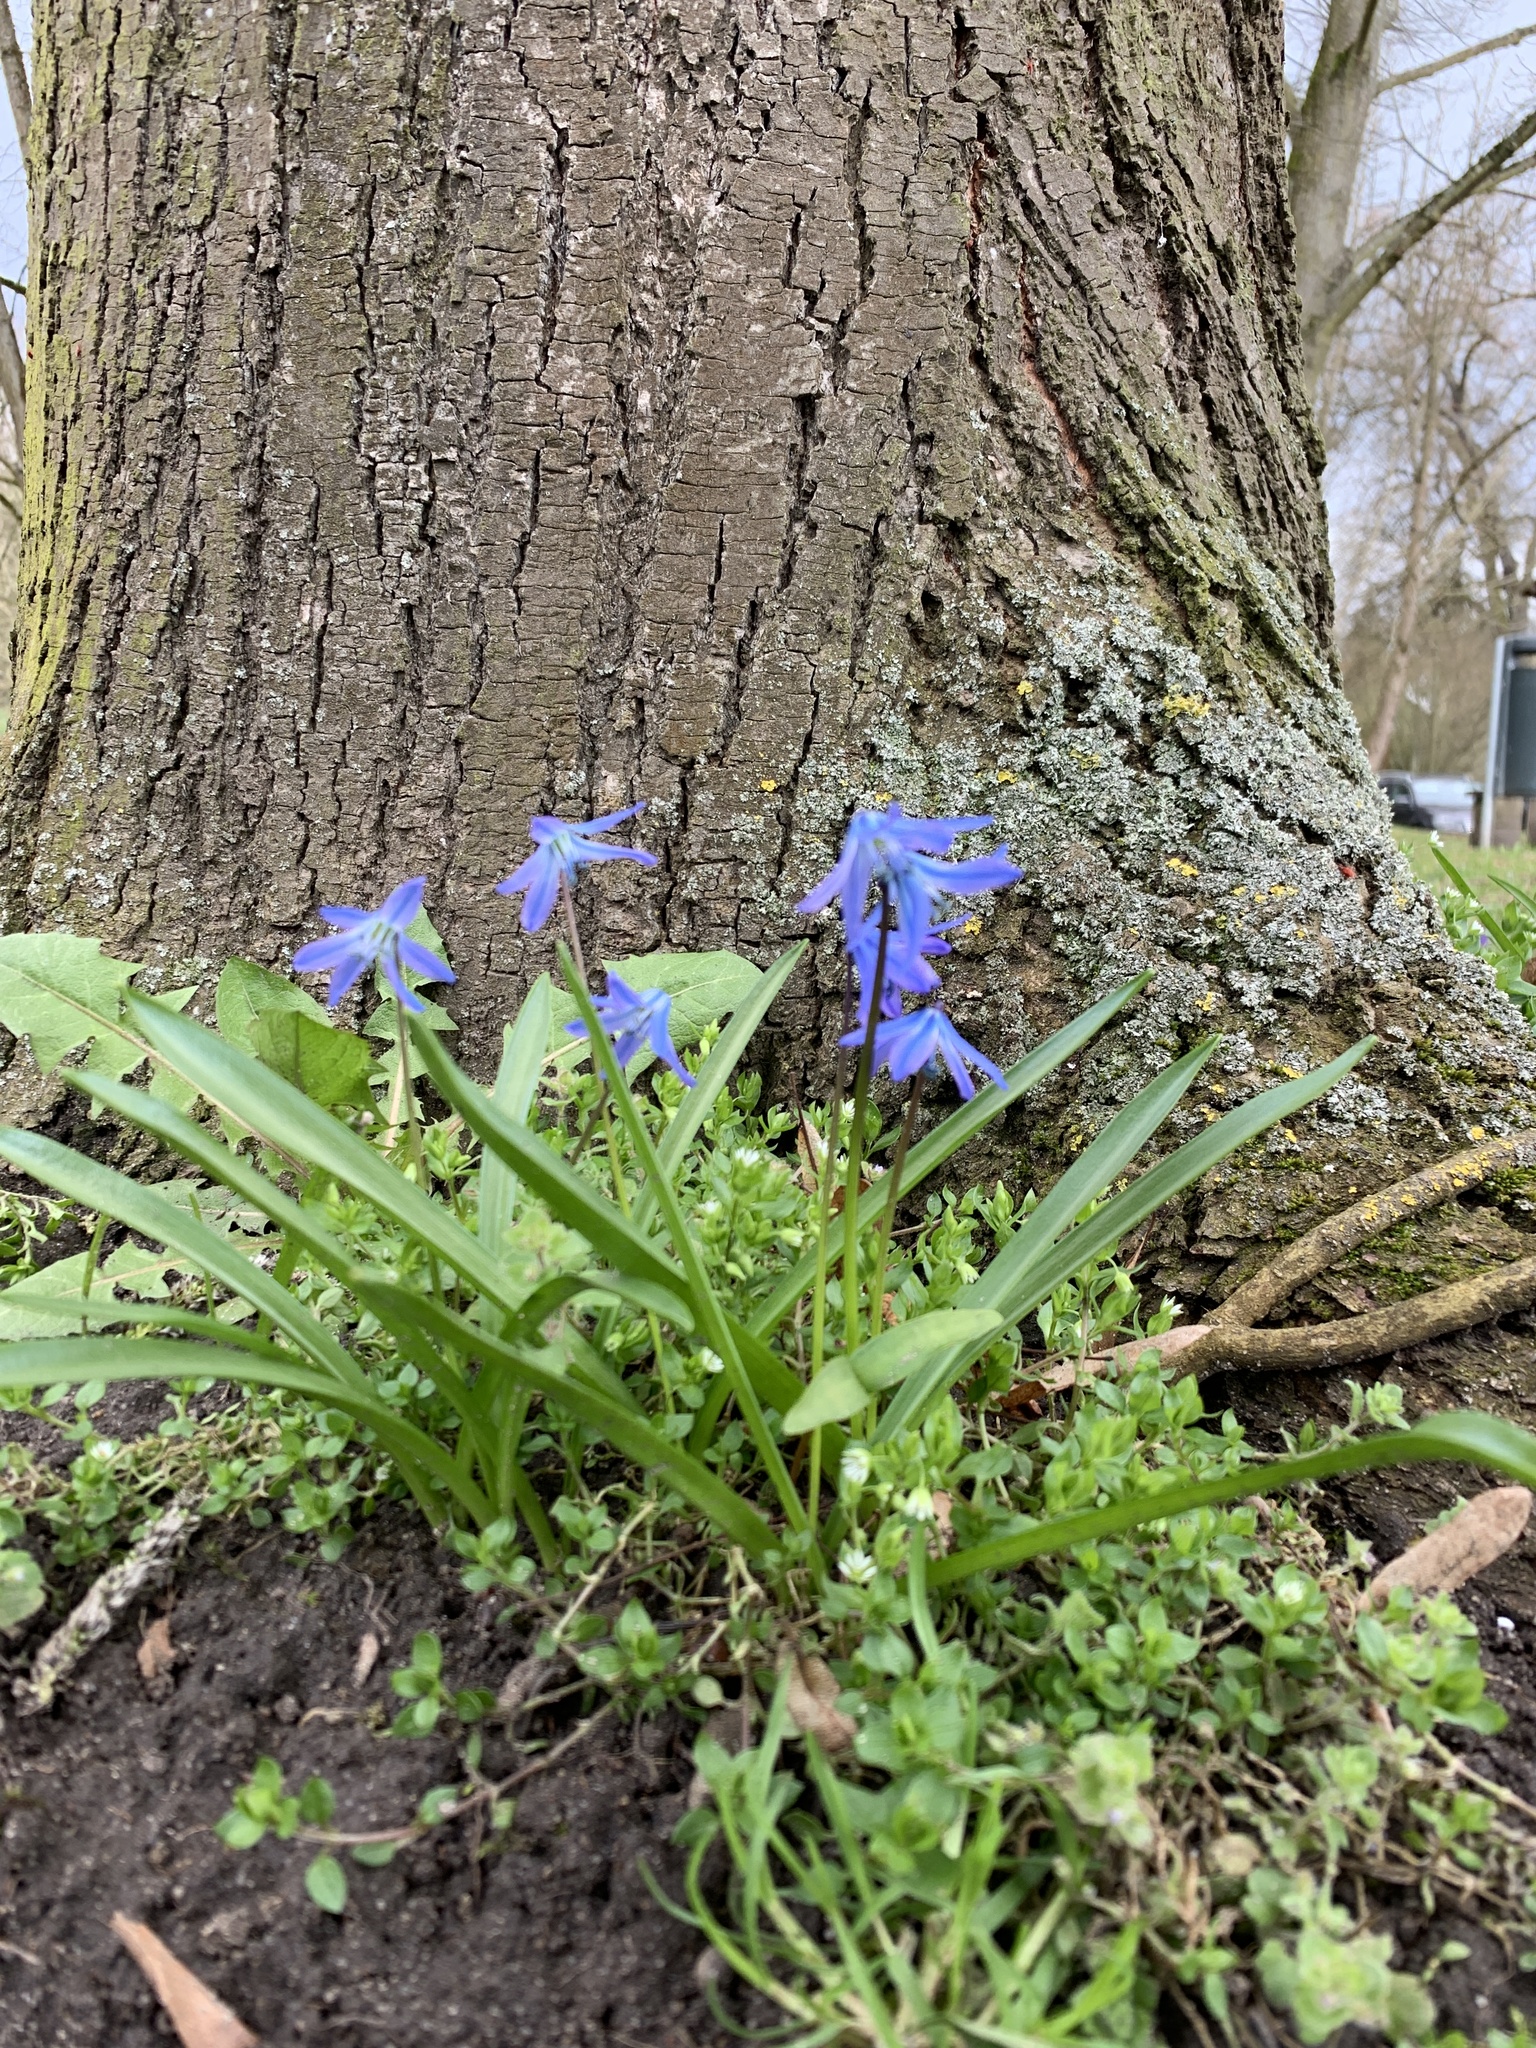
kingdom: Plantae
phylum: Tracheophyta
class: Liliopsida
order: Asparagales
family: Asparagaceae
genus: Scilla
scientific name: Scilla siberica
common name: Siberian squill
